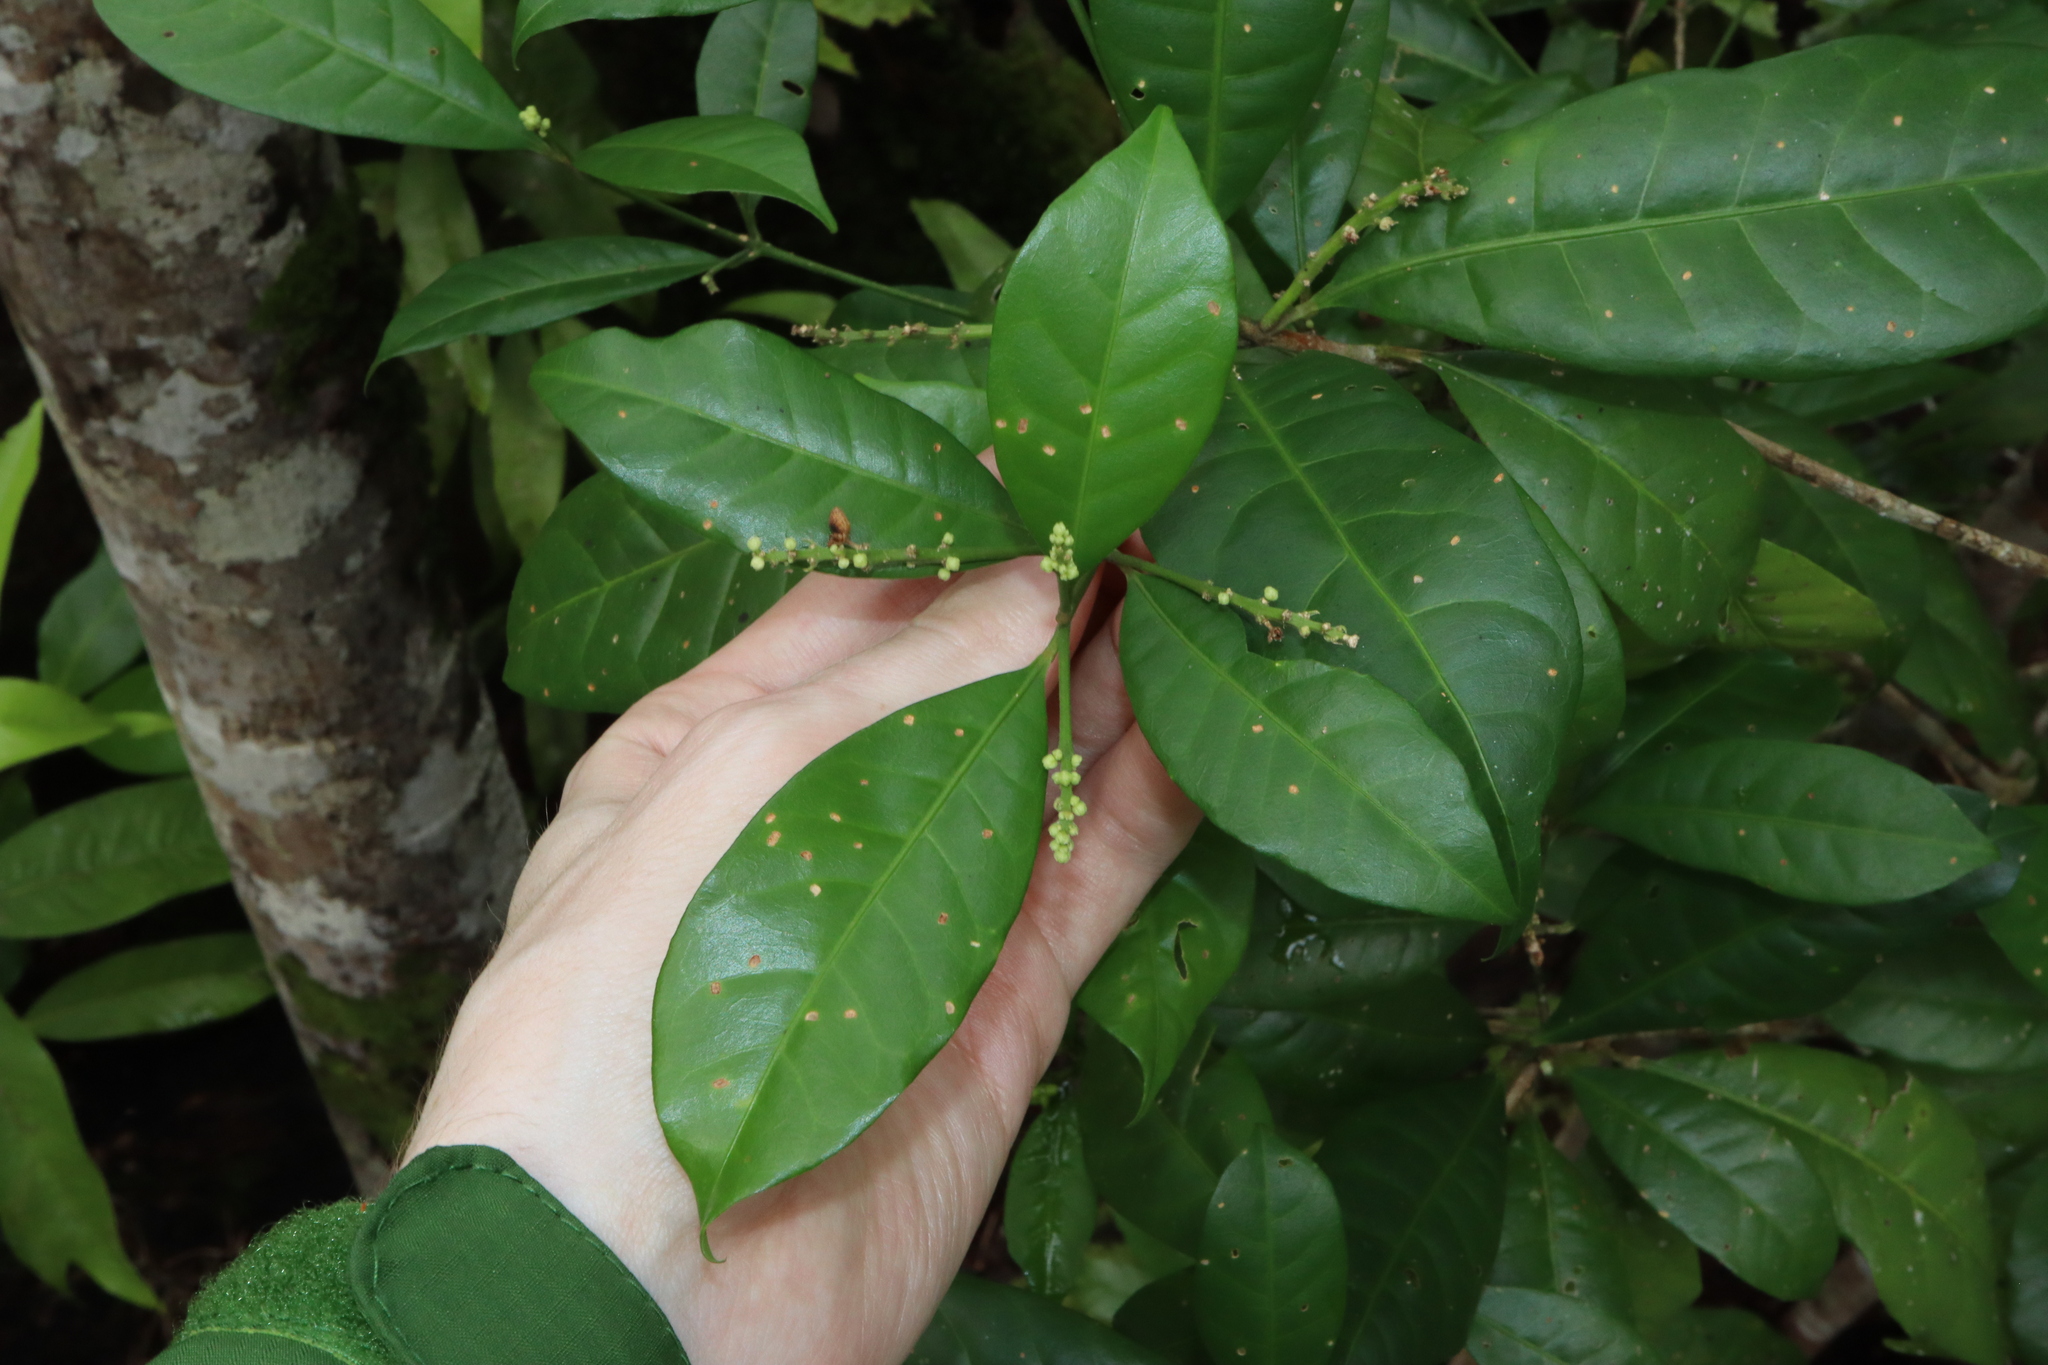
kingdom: Plantae
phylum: Tracheophyta
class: Magnoliopsida
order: Sapindales
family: Rutaceae
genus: Euodia
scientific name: Euodia hylandii
